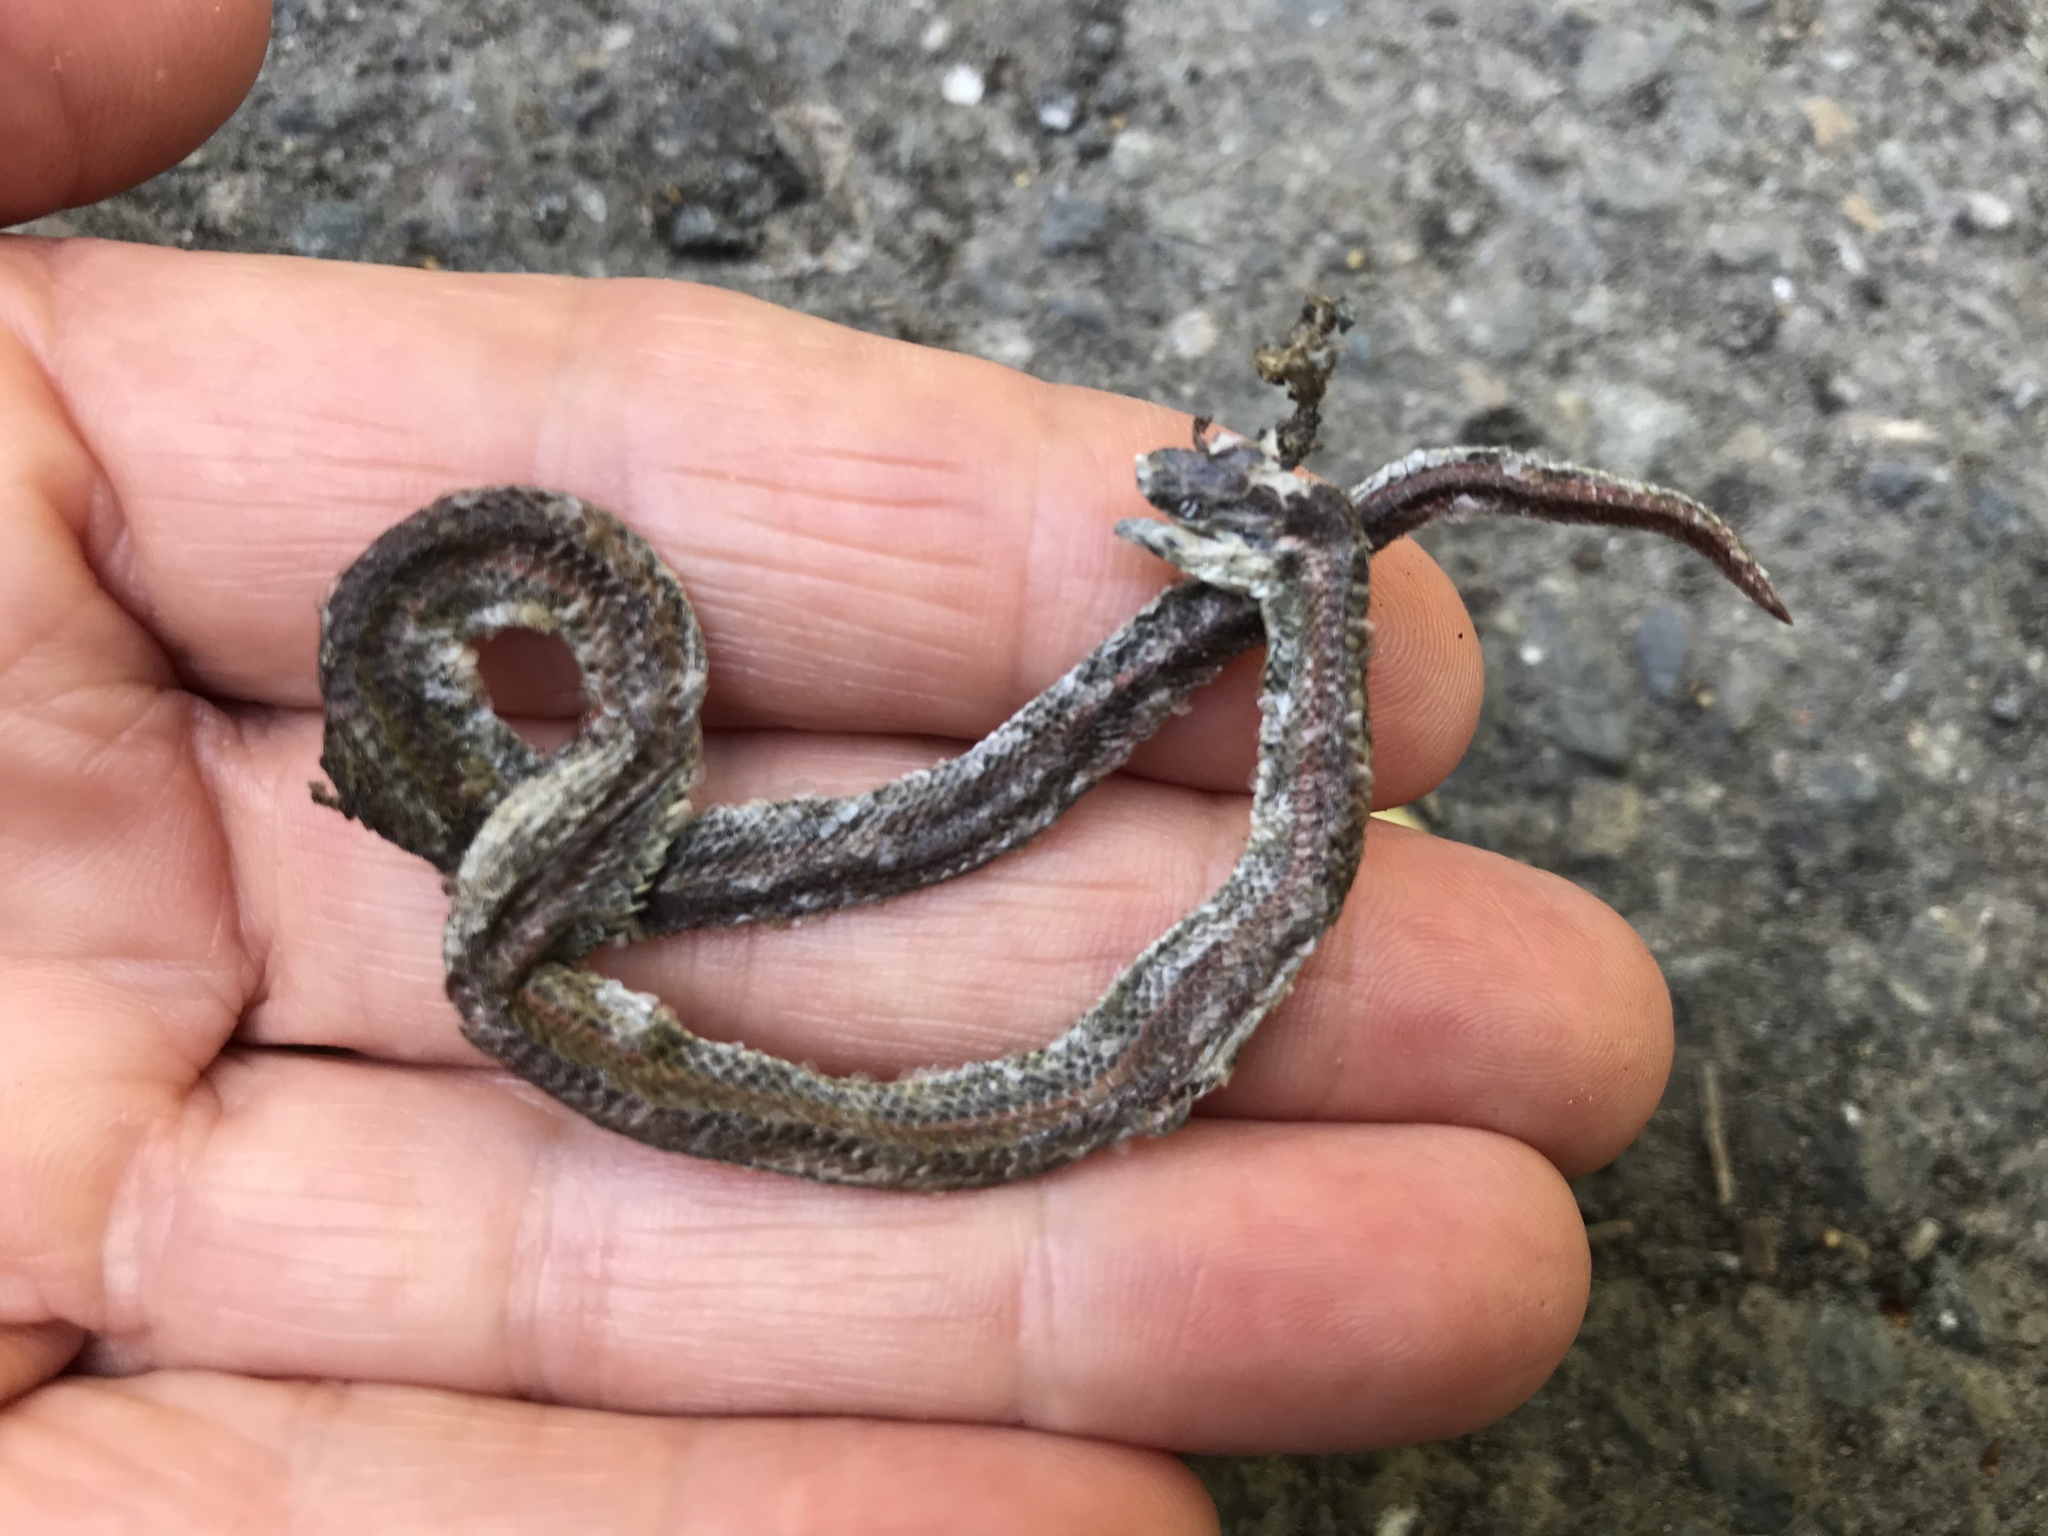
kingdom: Animalia
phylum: Chordata
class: Squamata
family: Colubridae
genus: Contia
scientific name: Contia tenuis
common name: Sharptail snake
